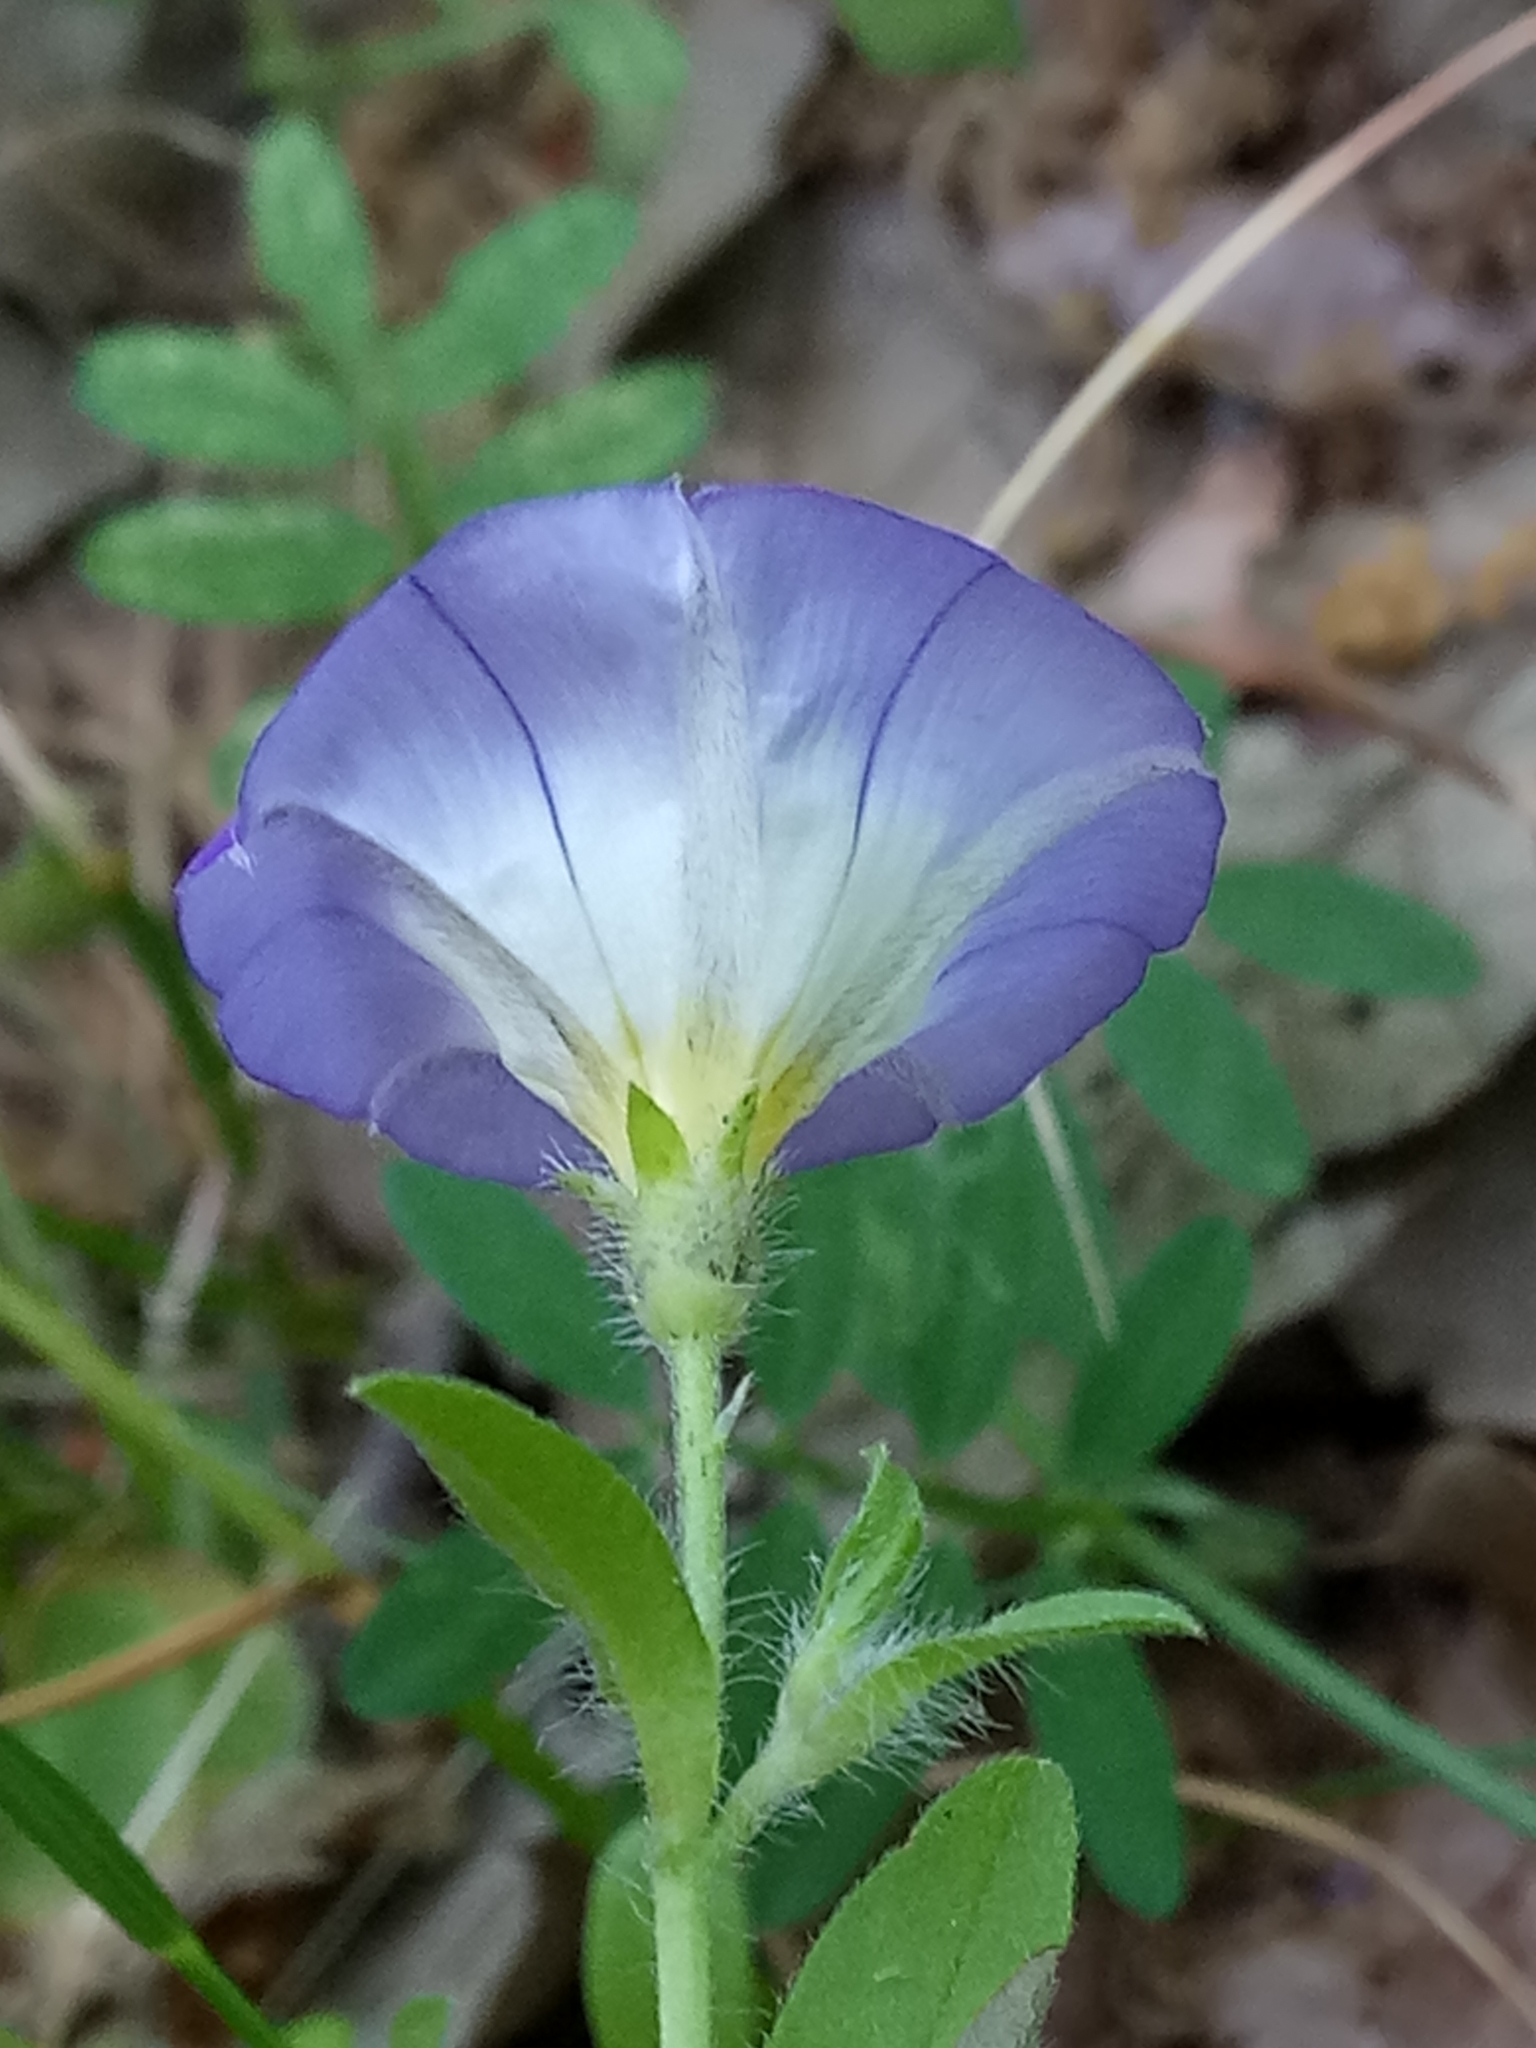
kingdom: Plantae
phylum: Tracheophyta
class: Magnoliopsida
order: Solanales
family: Convolvulaceae
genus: Convolvulus
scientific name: Convolvulus tricolor
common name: Dwarf morning-glory
